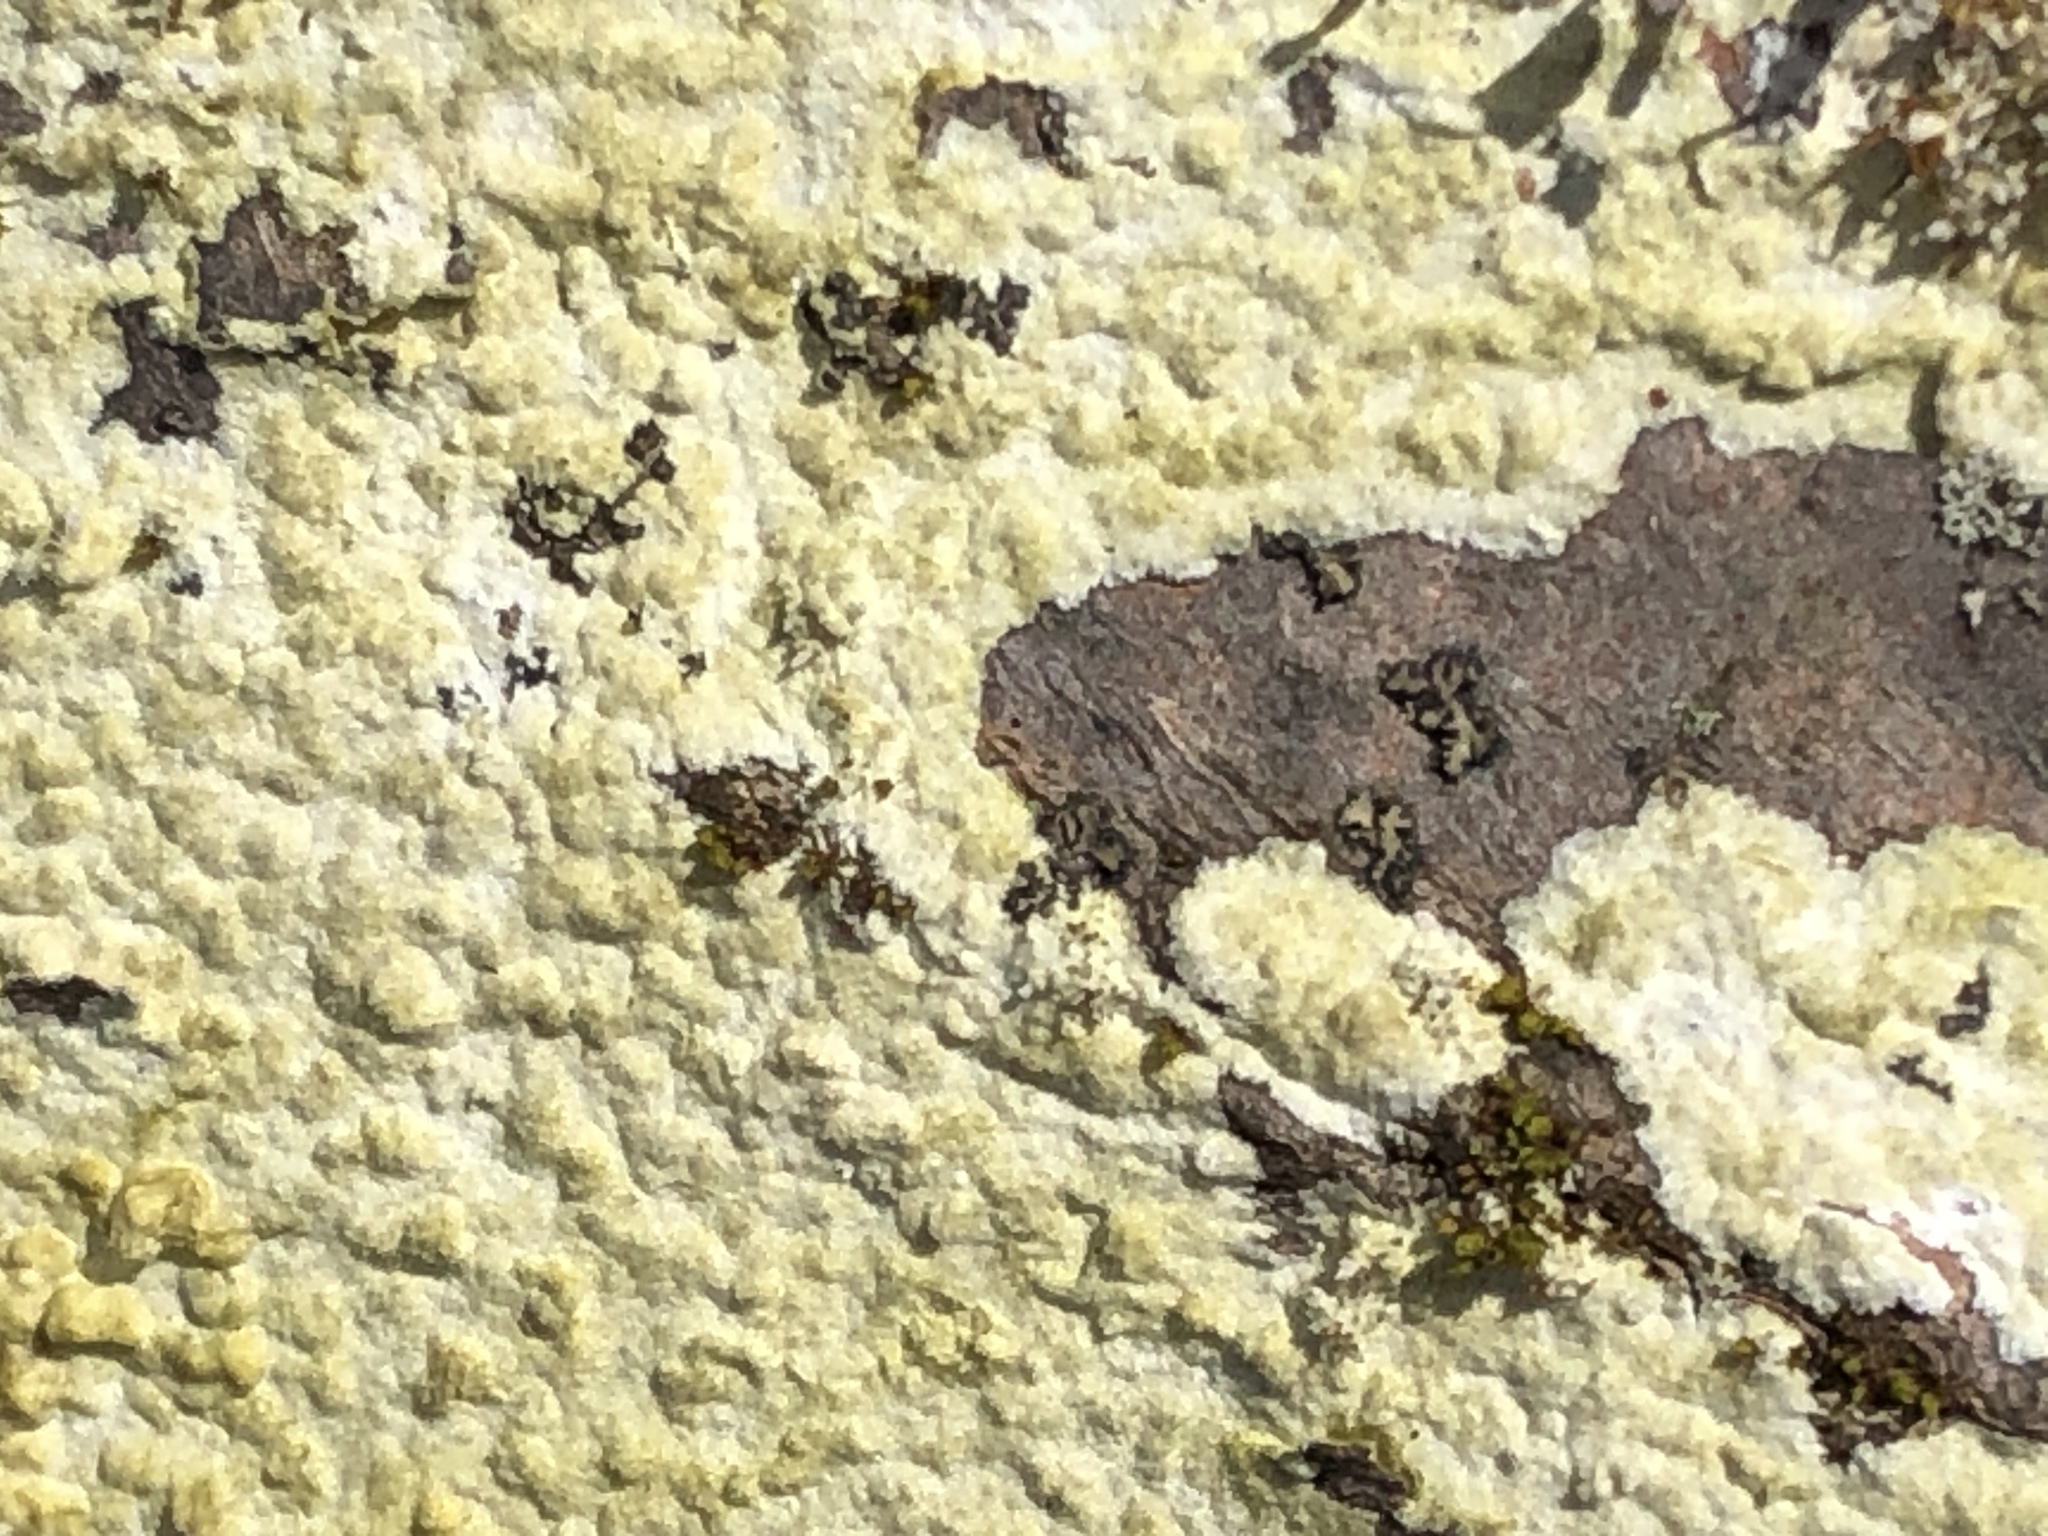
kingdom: Fungi
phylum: Basidiomycota
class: Agaricomycetes
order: Hymenochaetales
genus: Trichaptum
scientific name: Trichaptum biforme
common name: Violet-toothed polypore
